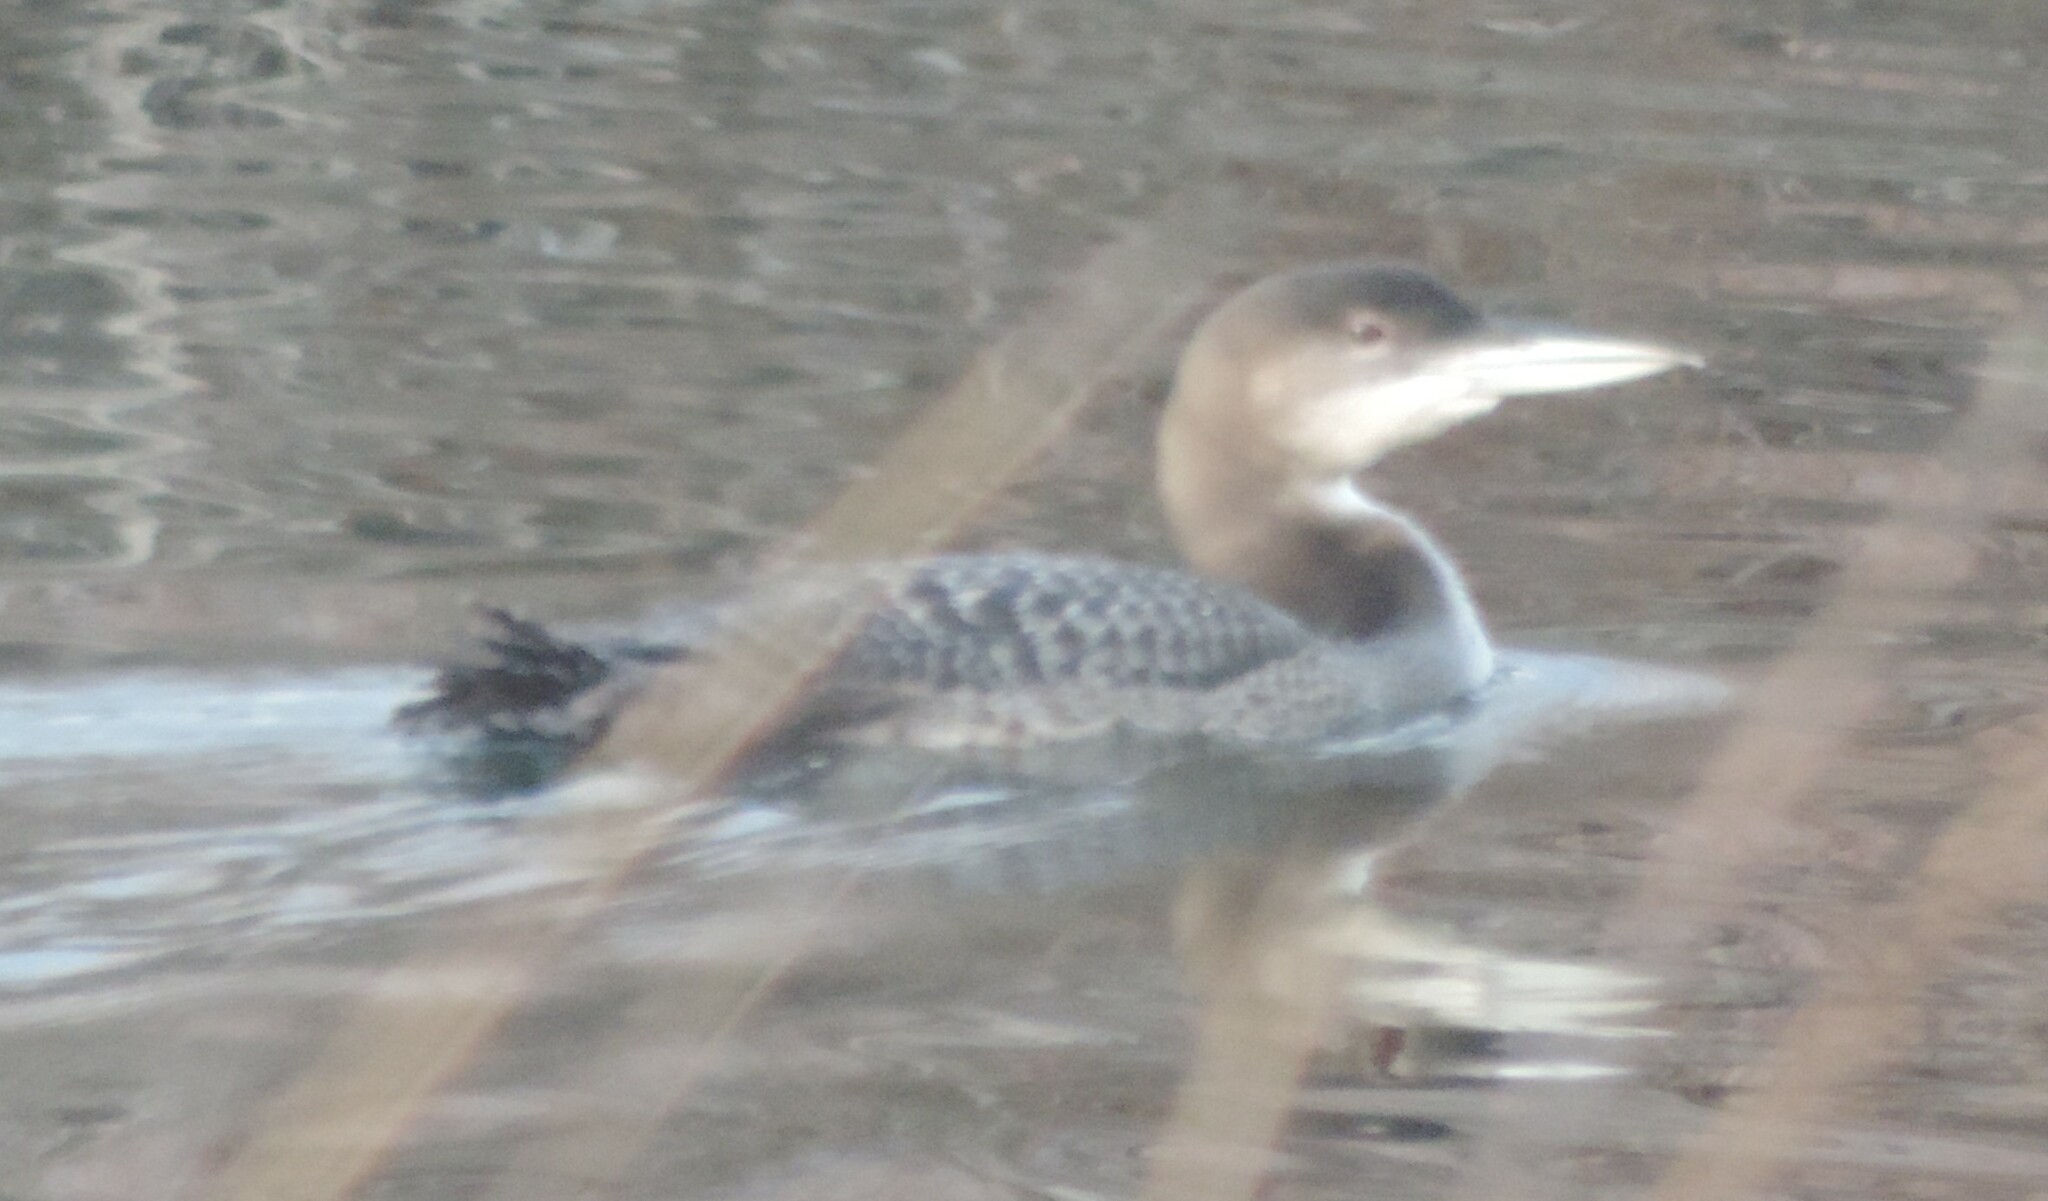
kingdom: Animalia
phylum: Chordata
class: Aves
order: Gaviiformes
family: Gaviidae
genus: Gavia
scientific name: Gavia immer
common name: Common loon
